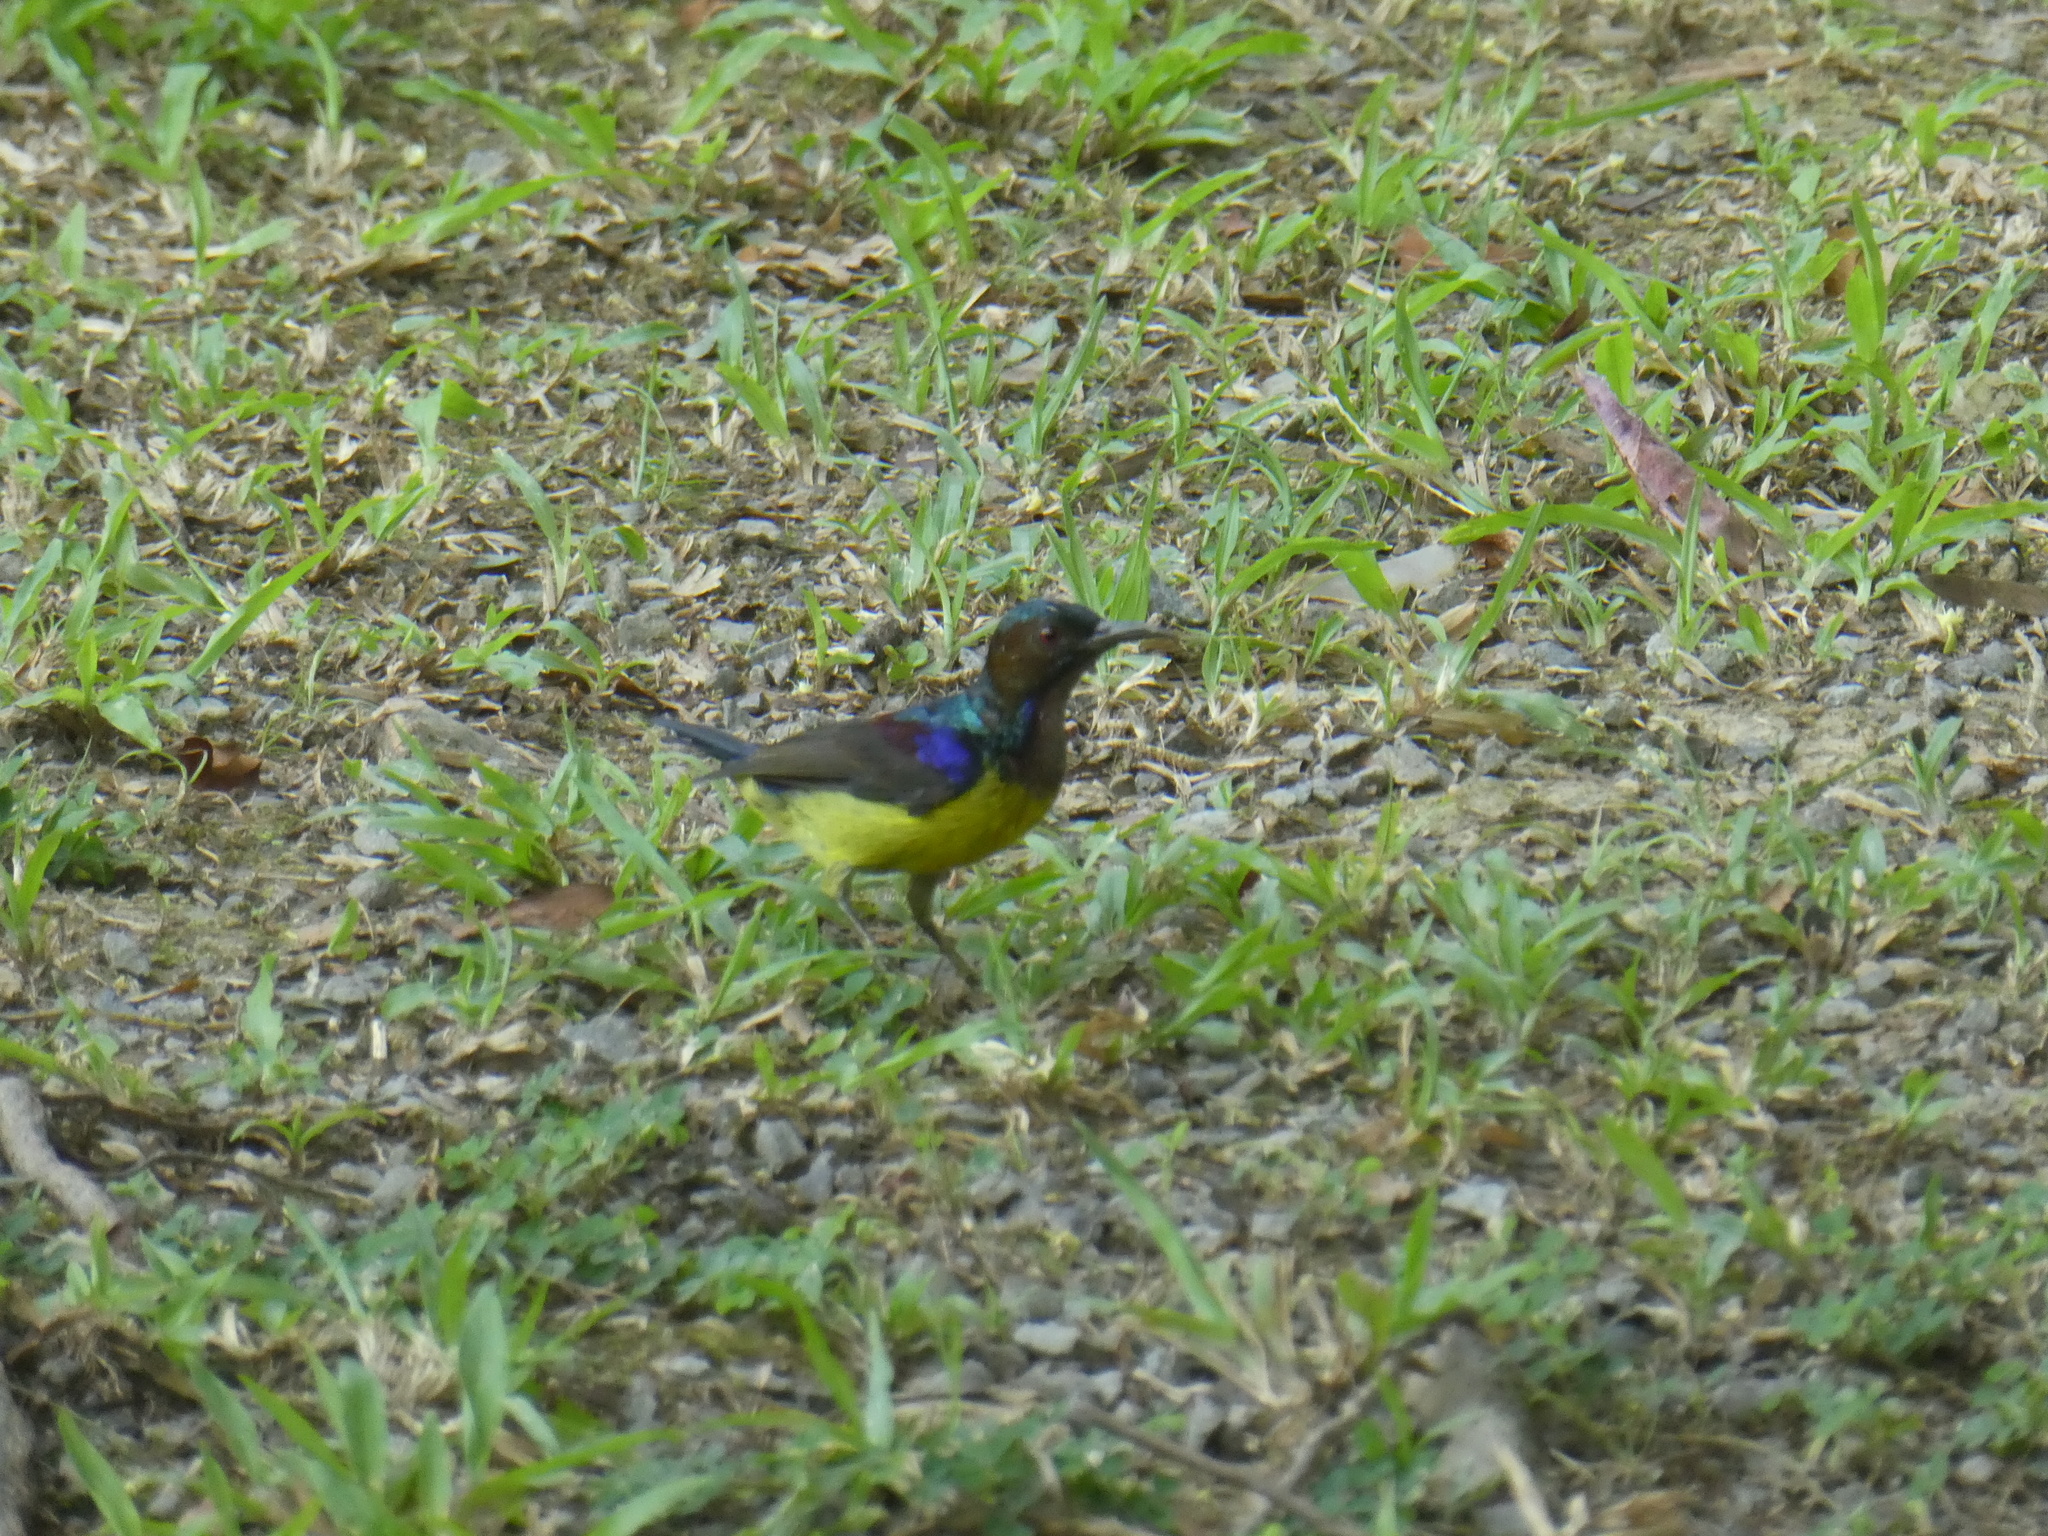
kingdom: Animalia
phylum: Chordata
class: Aves
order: Passeriformes
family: Nectariniidae
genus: Anthreptes
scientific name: Anthreptes malacensis
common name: Brown-throated sunbird
